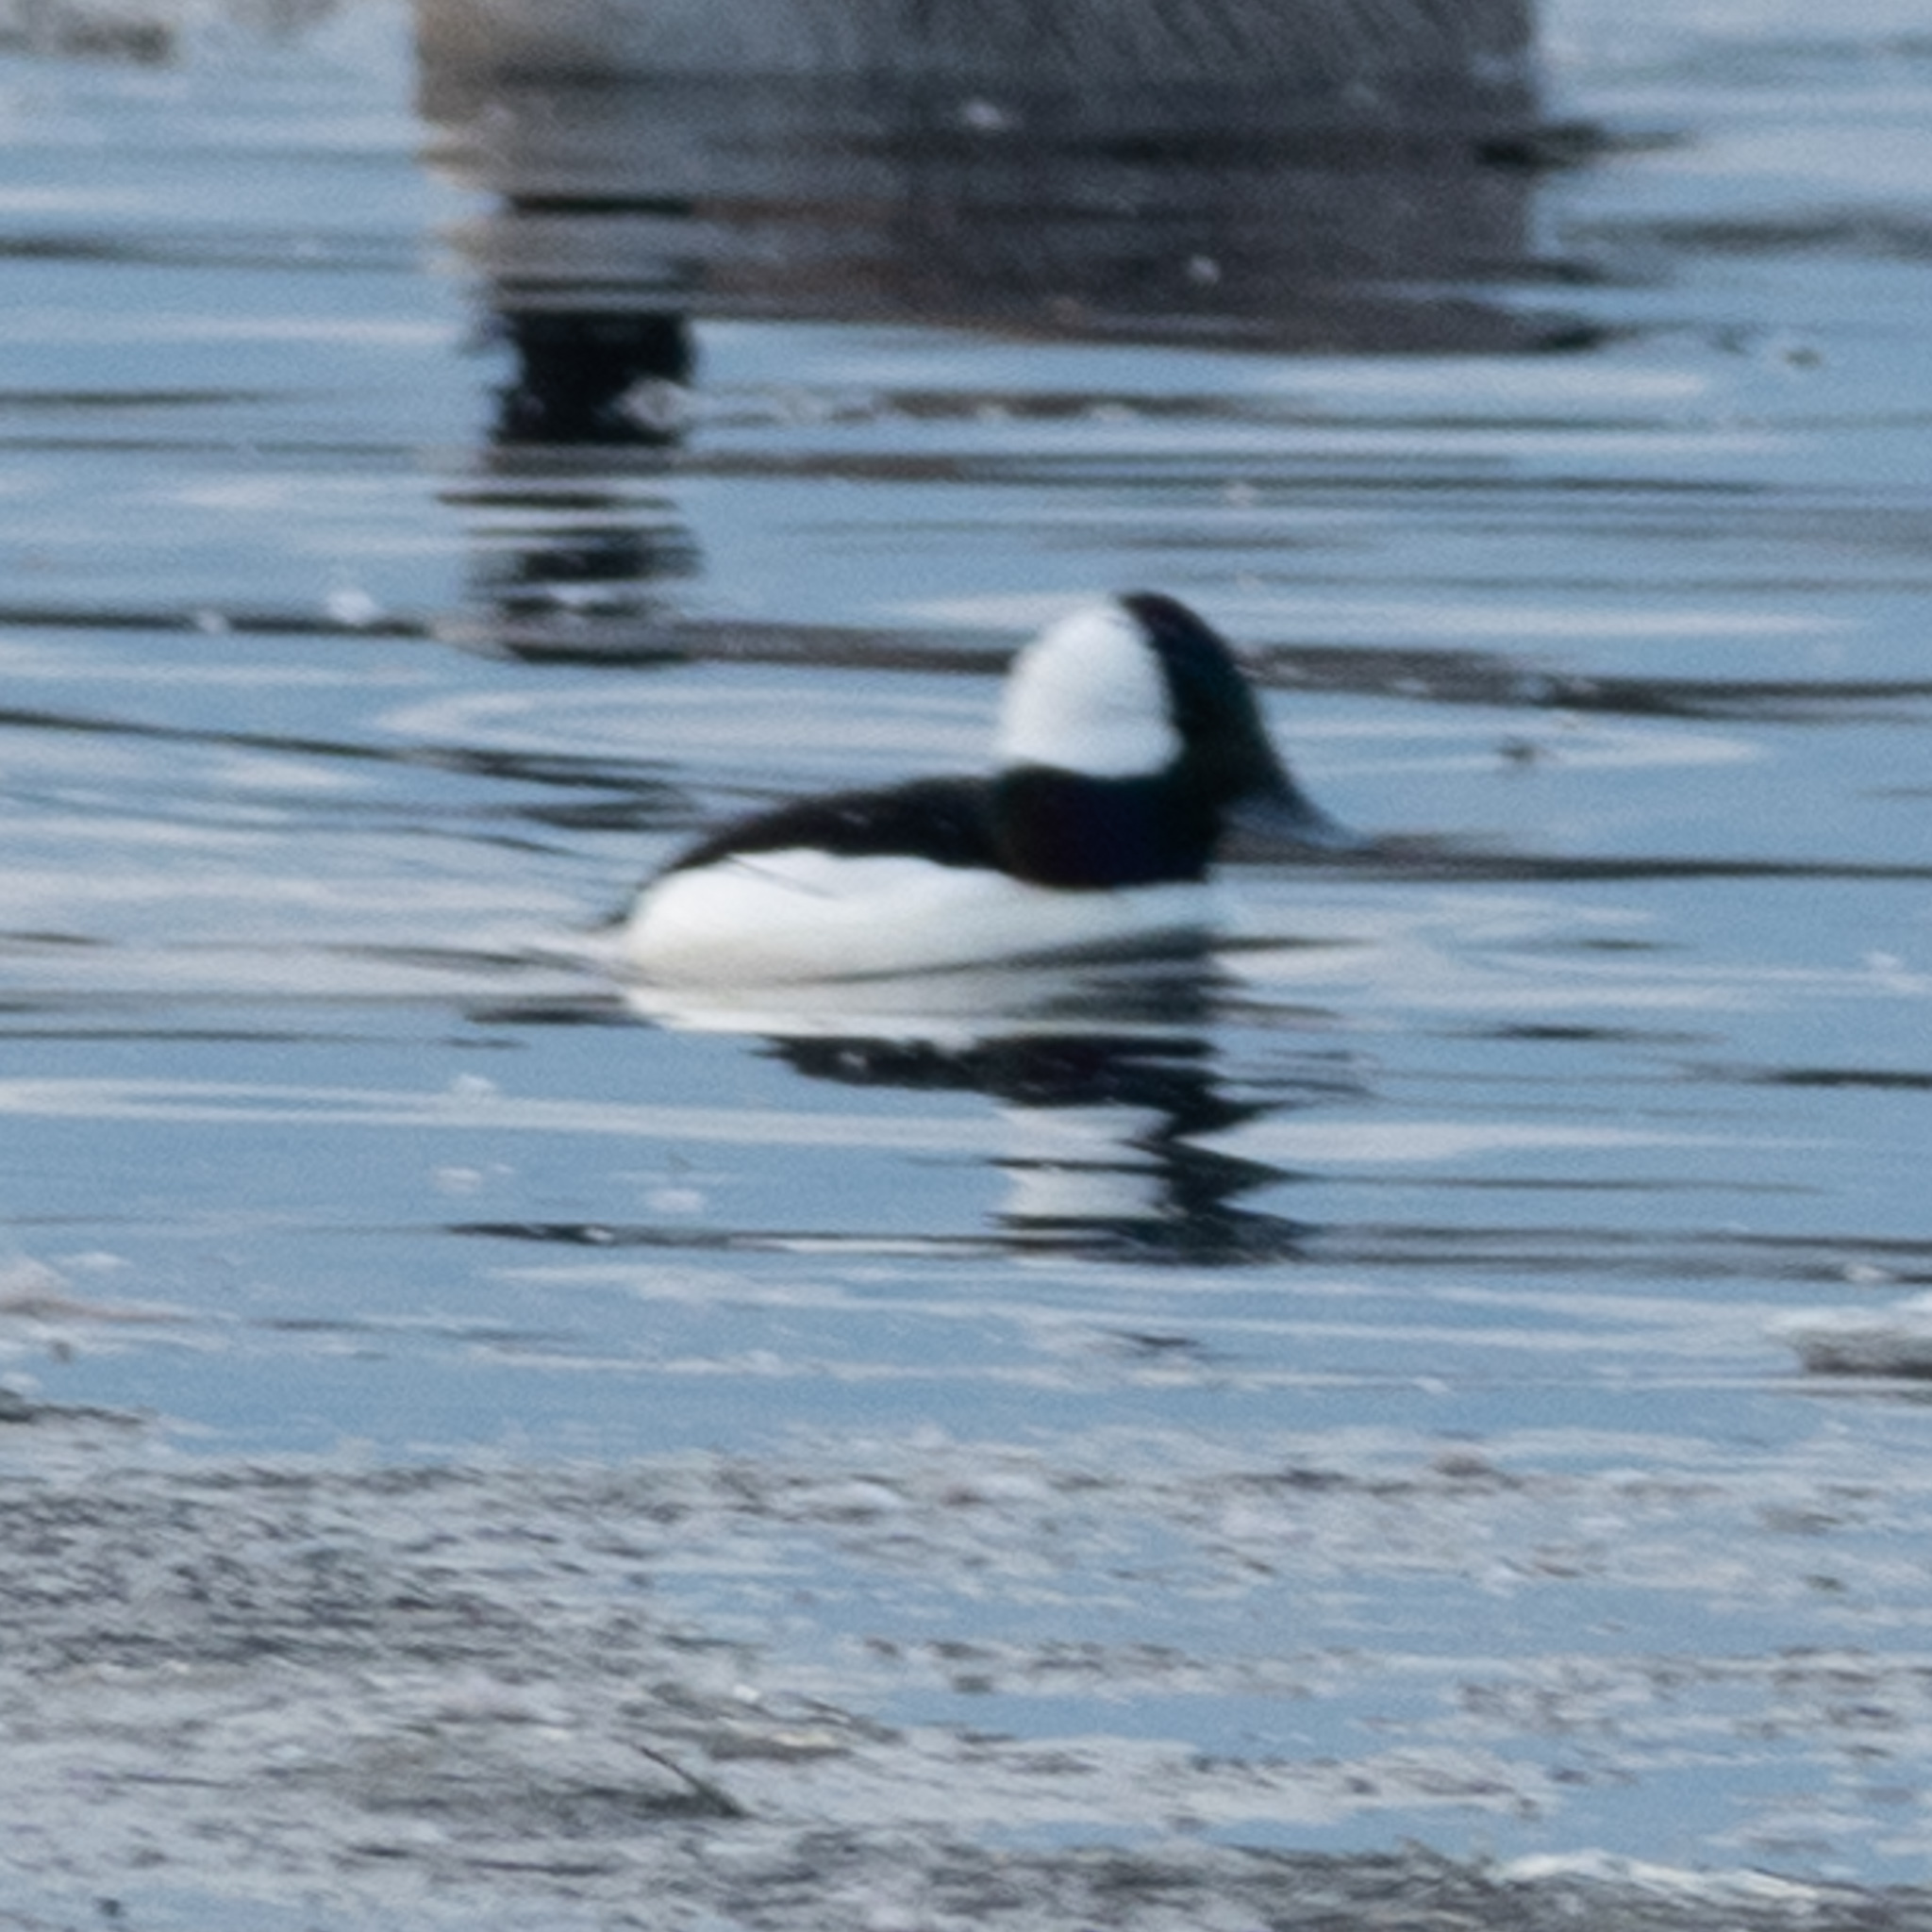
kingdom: Animalia
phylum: Chordata
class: Aves
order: Anseriformes
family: Anatidae
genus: Bucephala
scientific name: Bucephala albeola
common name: Bufflehead
